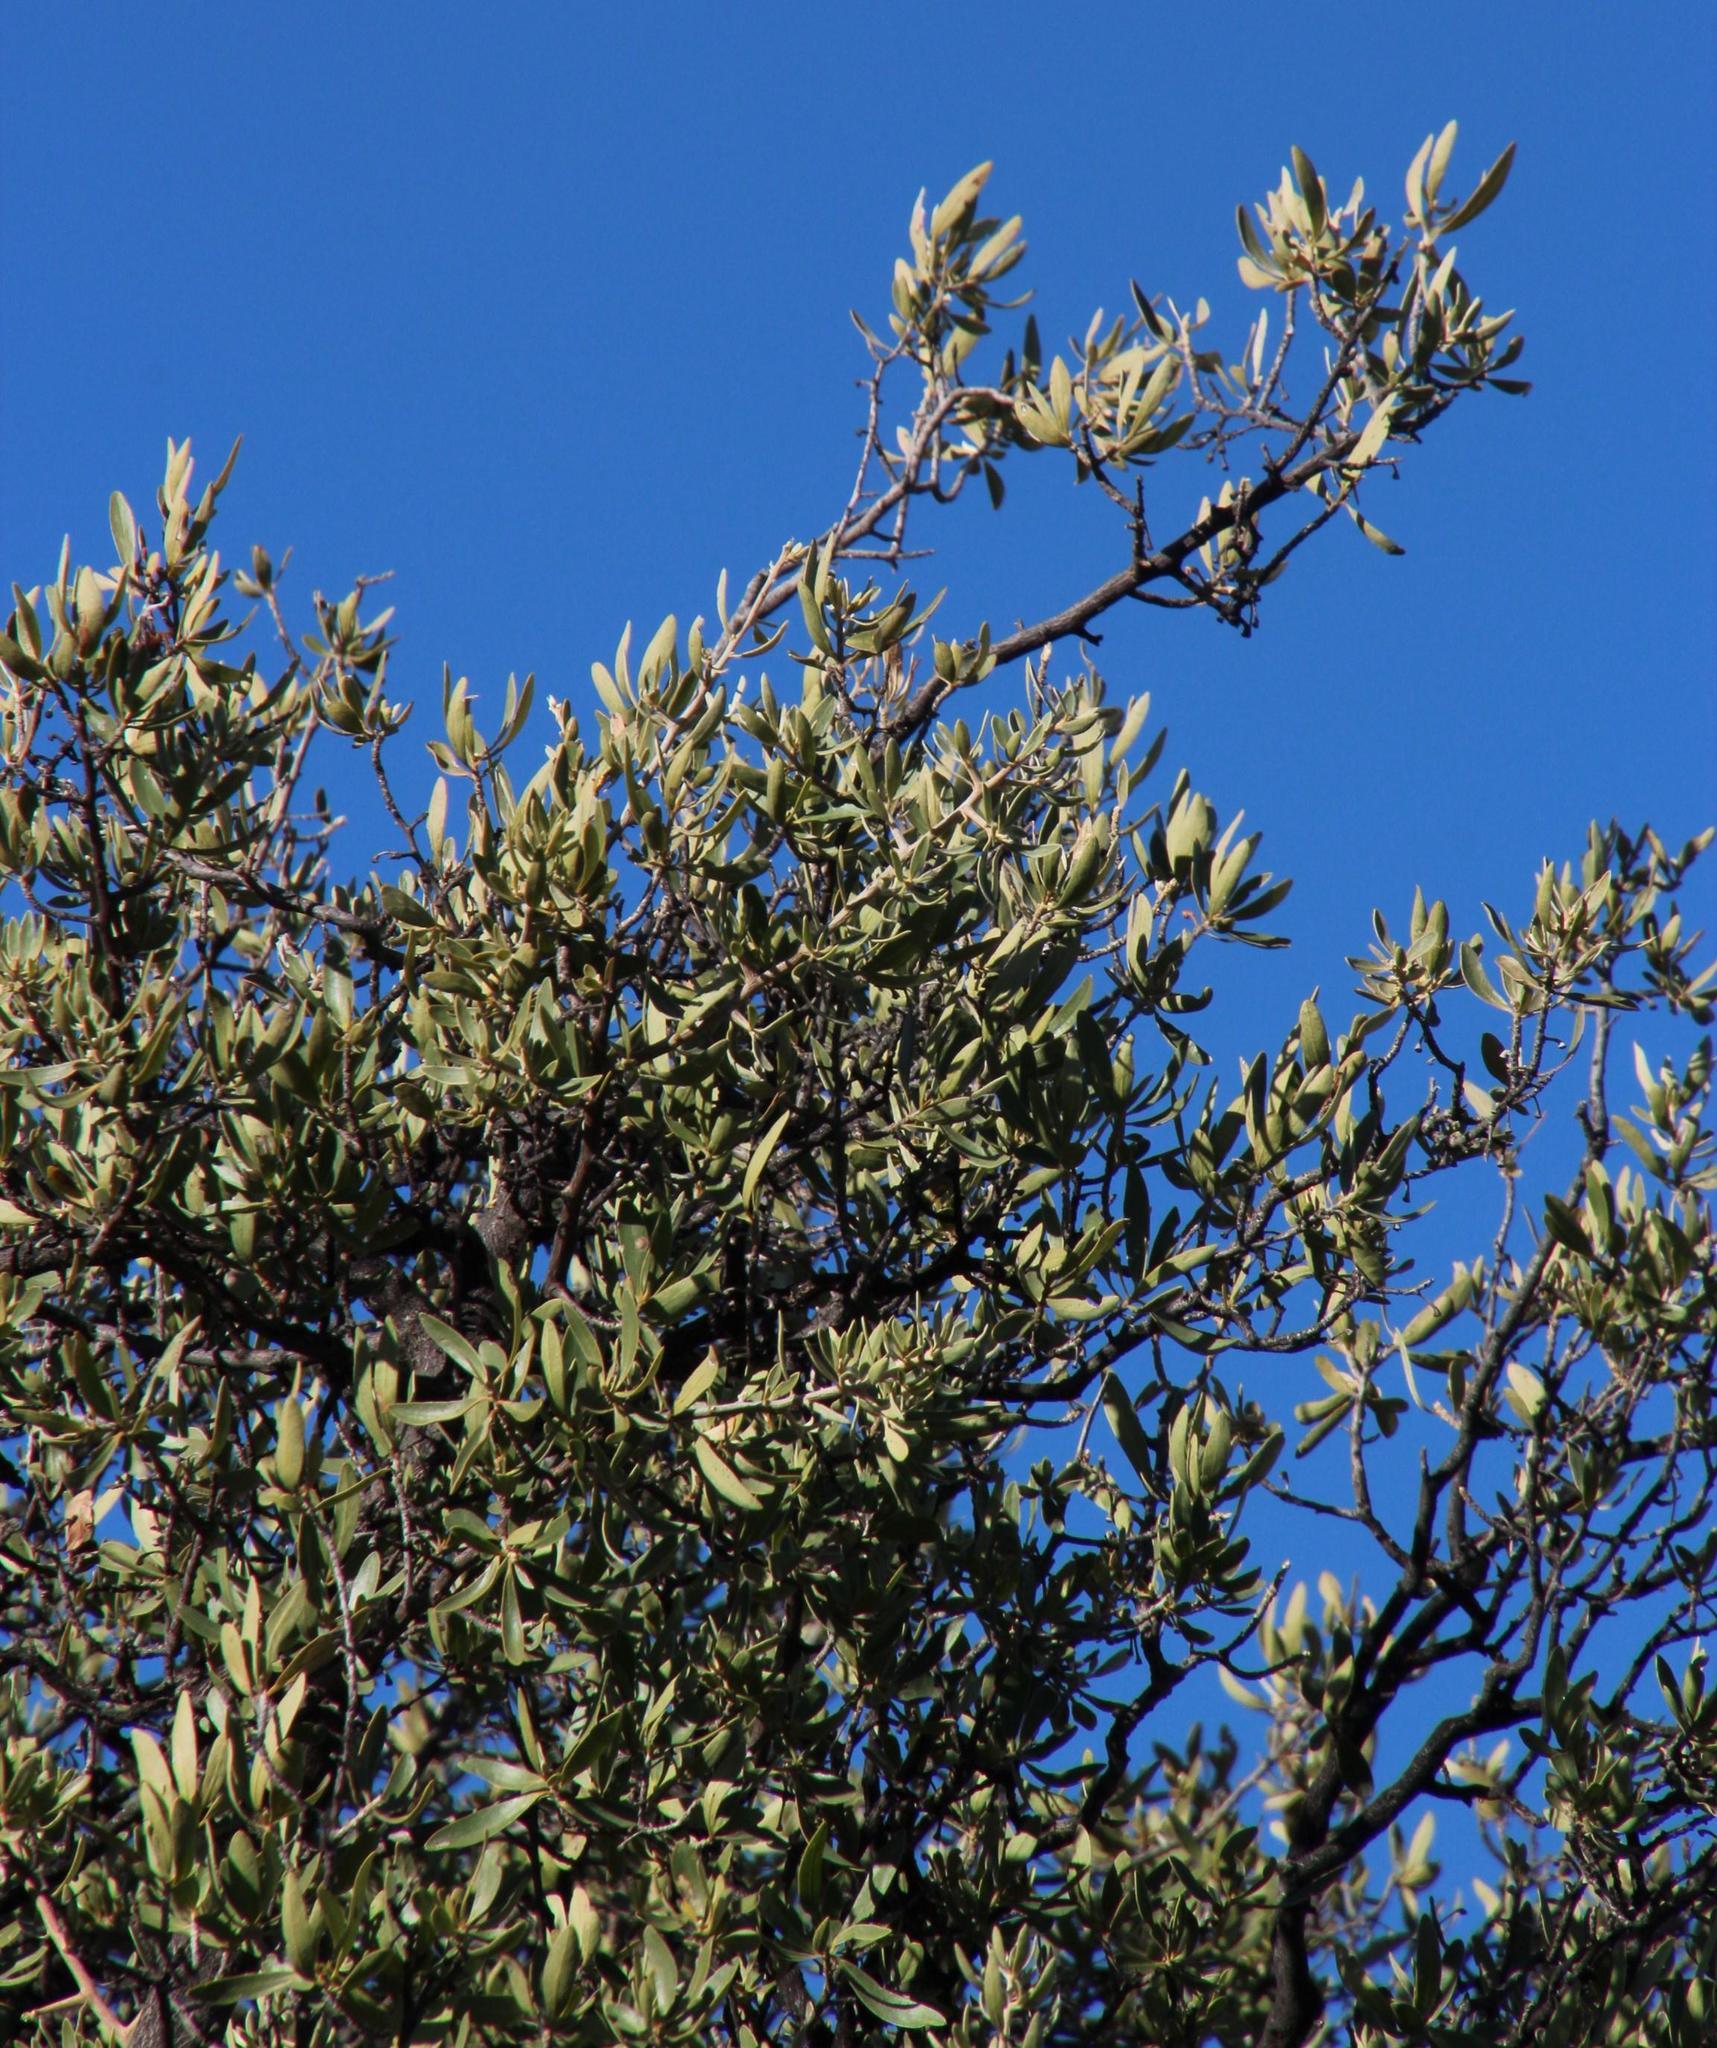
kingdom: Plantae
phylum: Tracheophyta
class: Magnoliopsida
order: Ericales
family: Ebenaceae
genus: Diospyros
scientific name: Diospyros lycioides
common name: Red star apple
